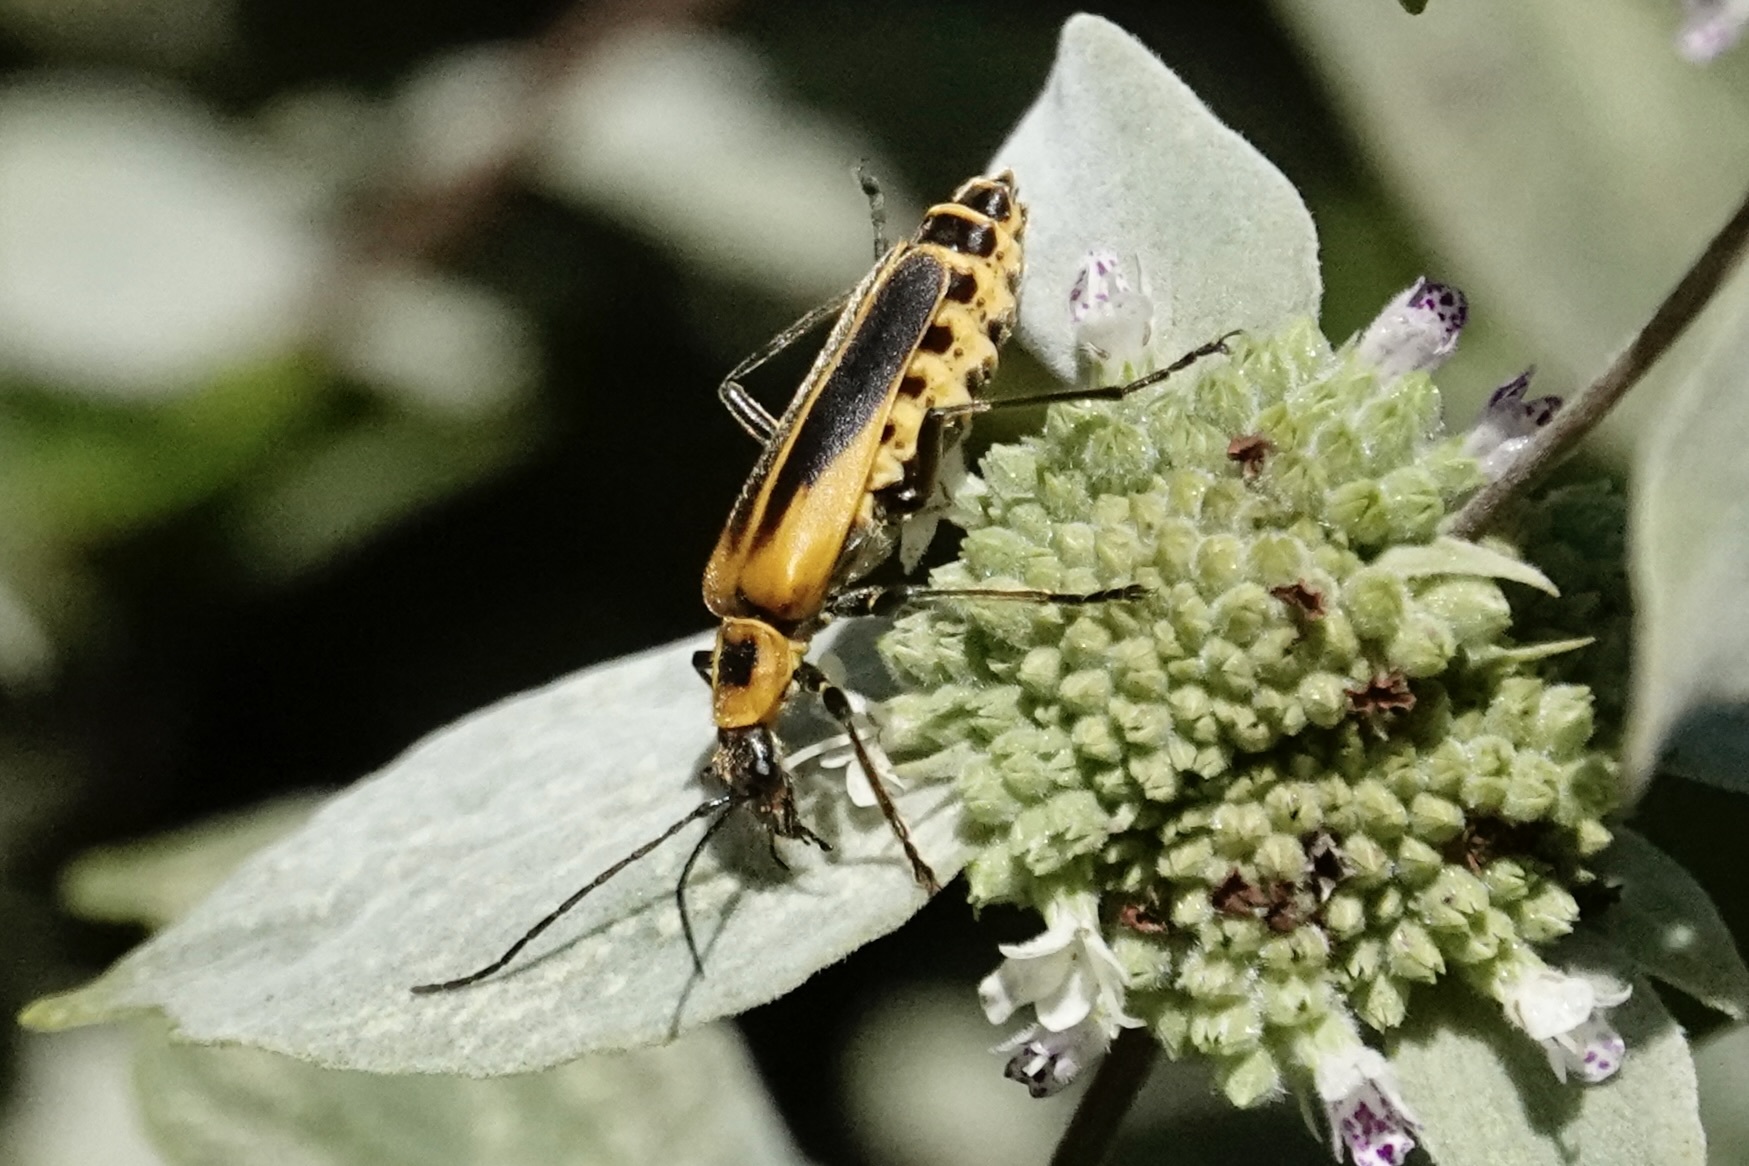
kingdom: Animalia
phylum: Arthropoda
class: Insecta
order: Coleoptera
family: Cantharidae
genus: Chauliognathus
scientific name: Chauliognathus pensylvanicus
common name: Goldenrod soldier beetle
